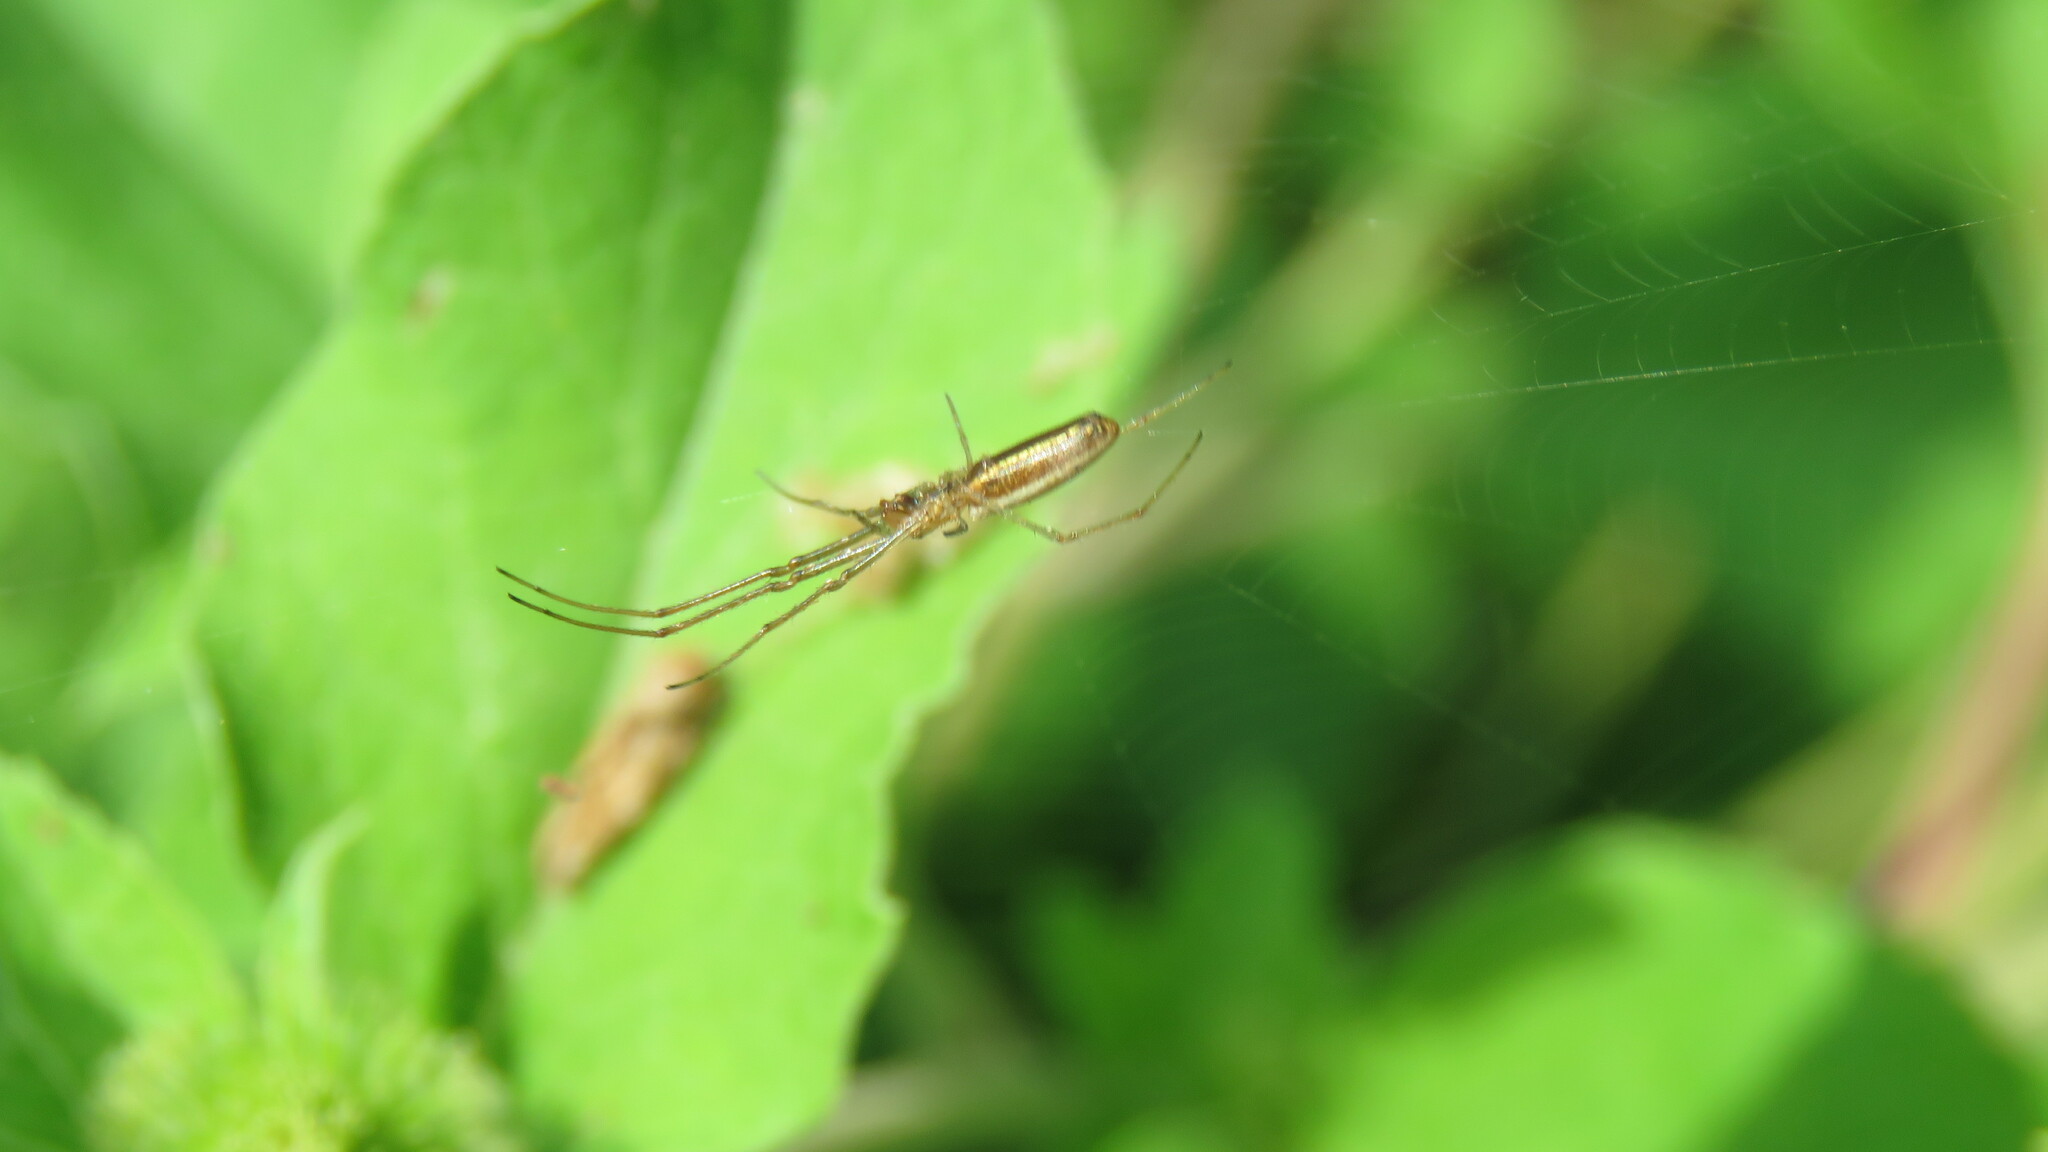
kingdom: Animalia
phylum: Arthropoda
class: Arachnida
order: Araneae
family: Tetragnathidae
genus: Tetragnatha
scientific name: Tetragnatha extensa
